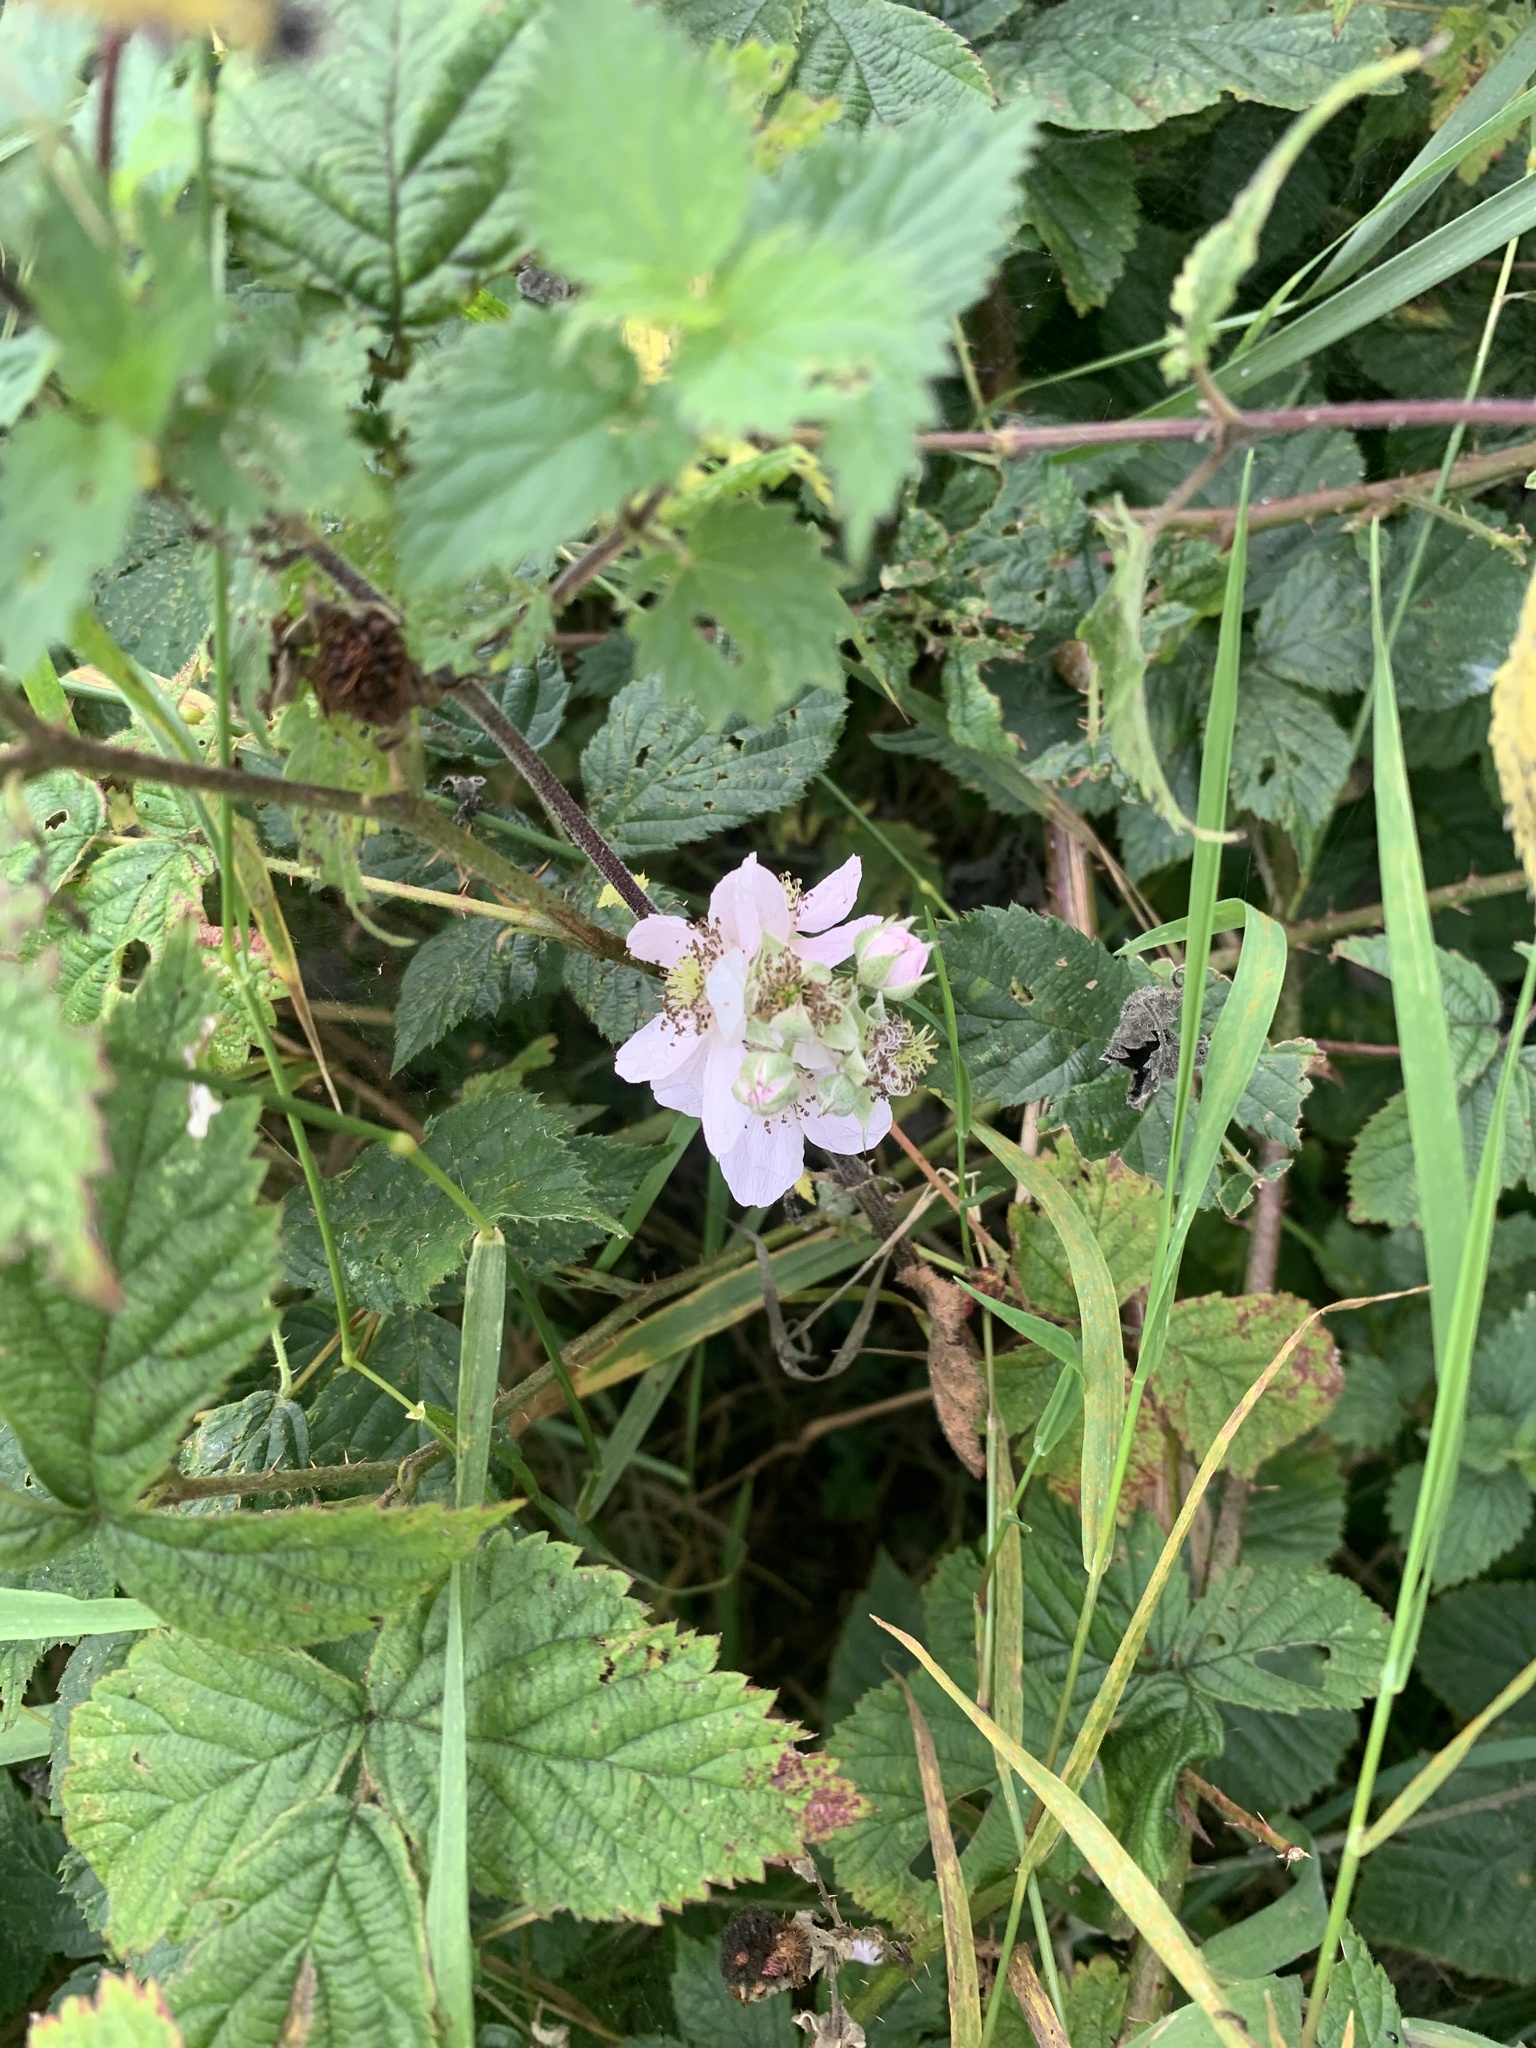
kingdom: Plantae
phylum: Tracheophyta
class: Magnoliopsida
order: Rosales
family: Rosaceae
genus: Rubus
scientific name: Rubus fruticosus
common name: Blackberry, bramble
